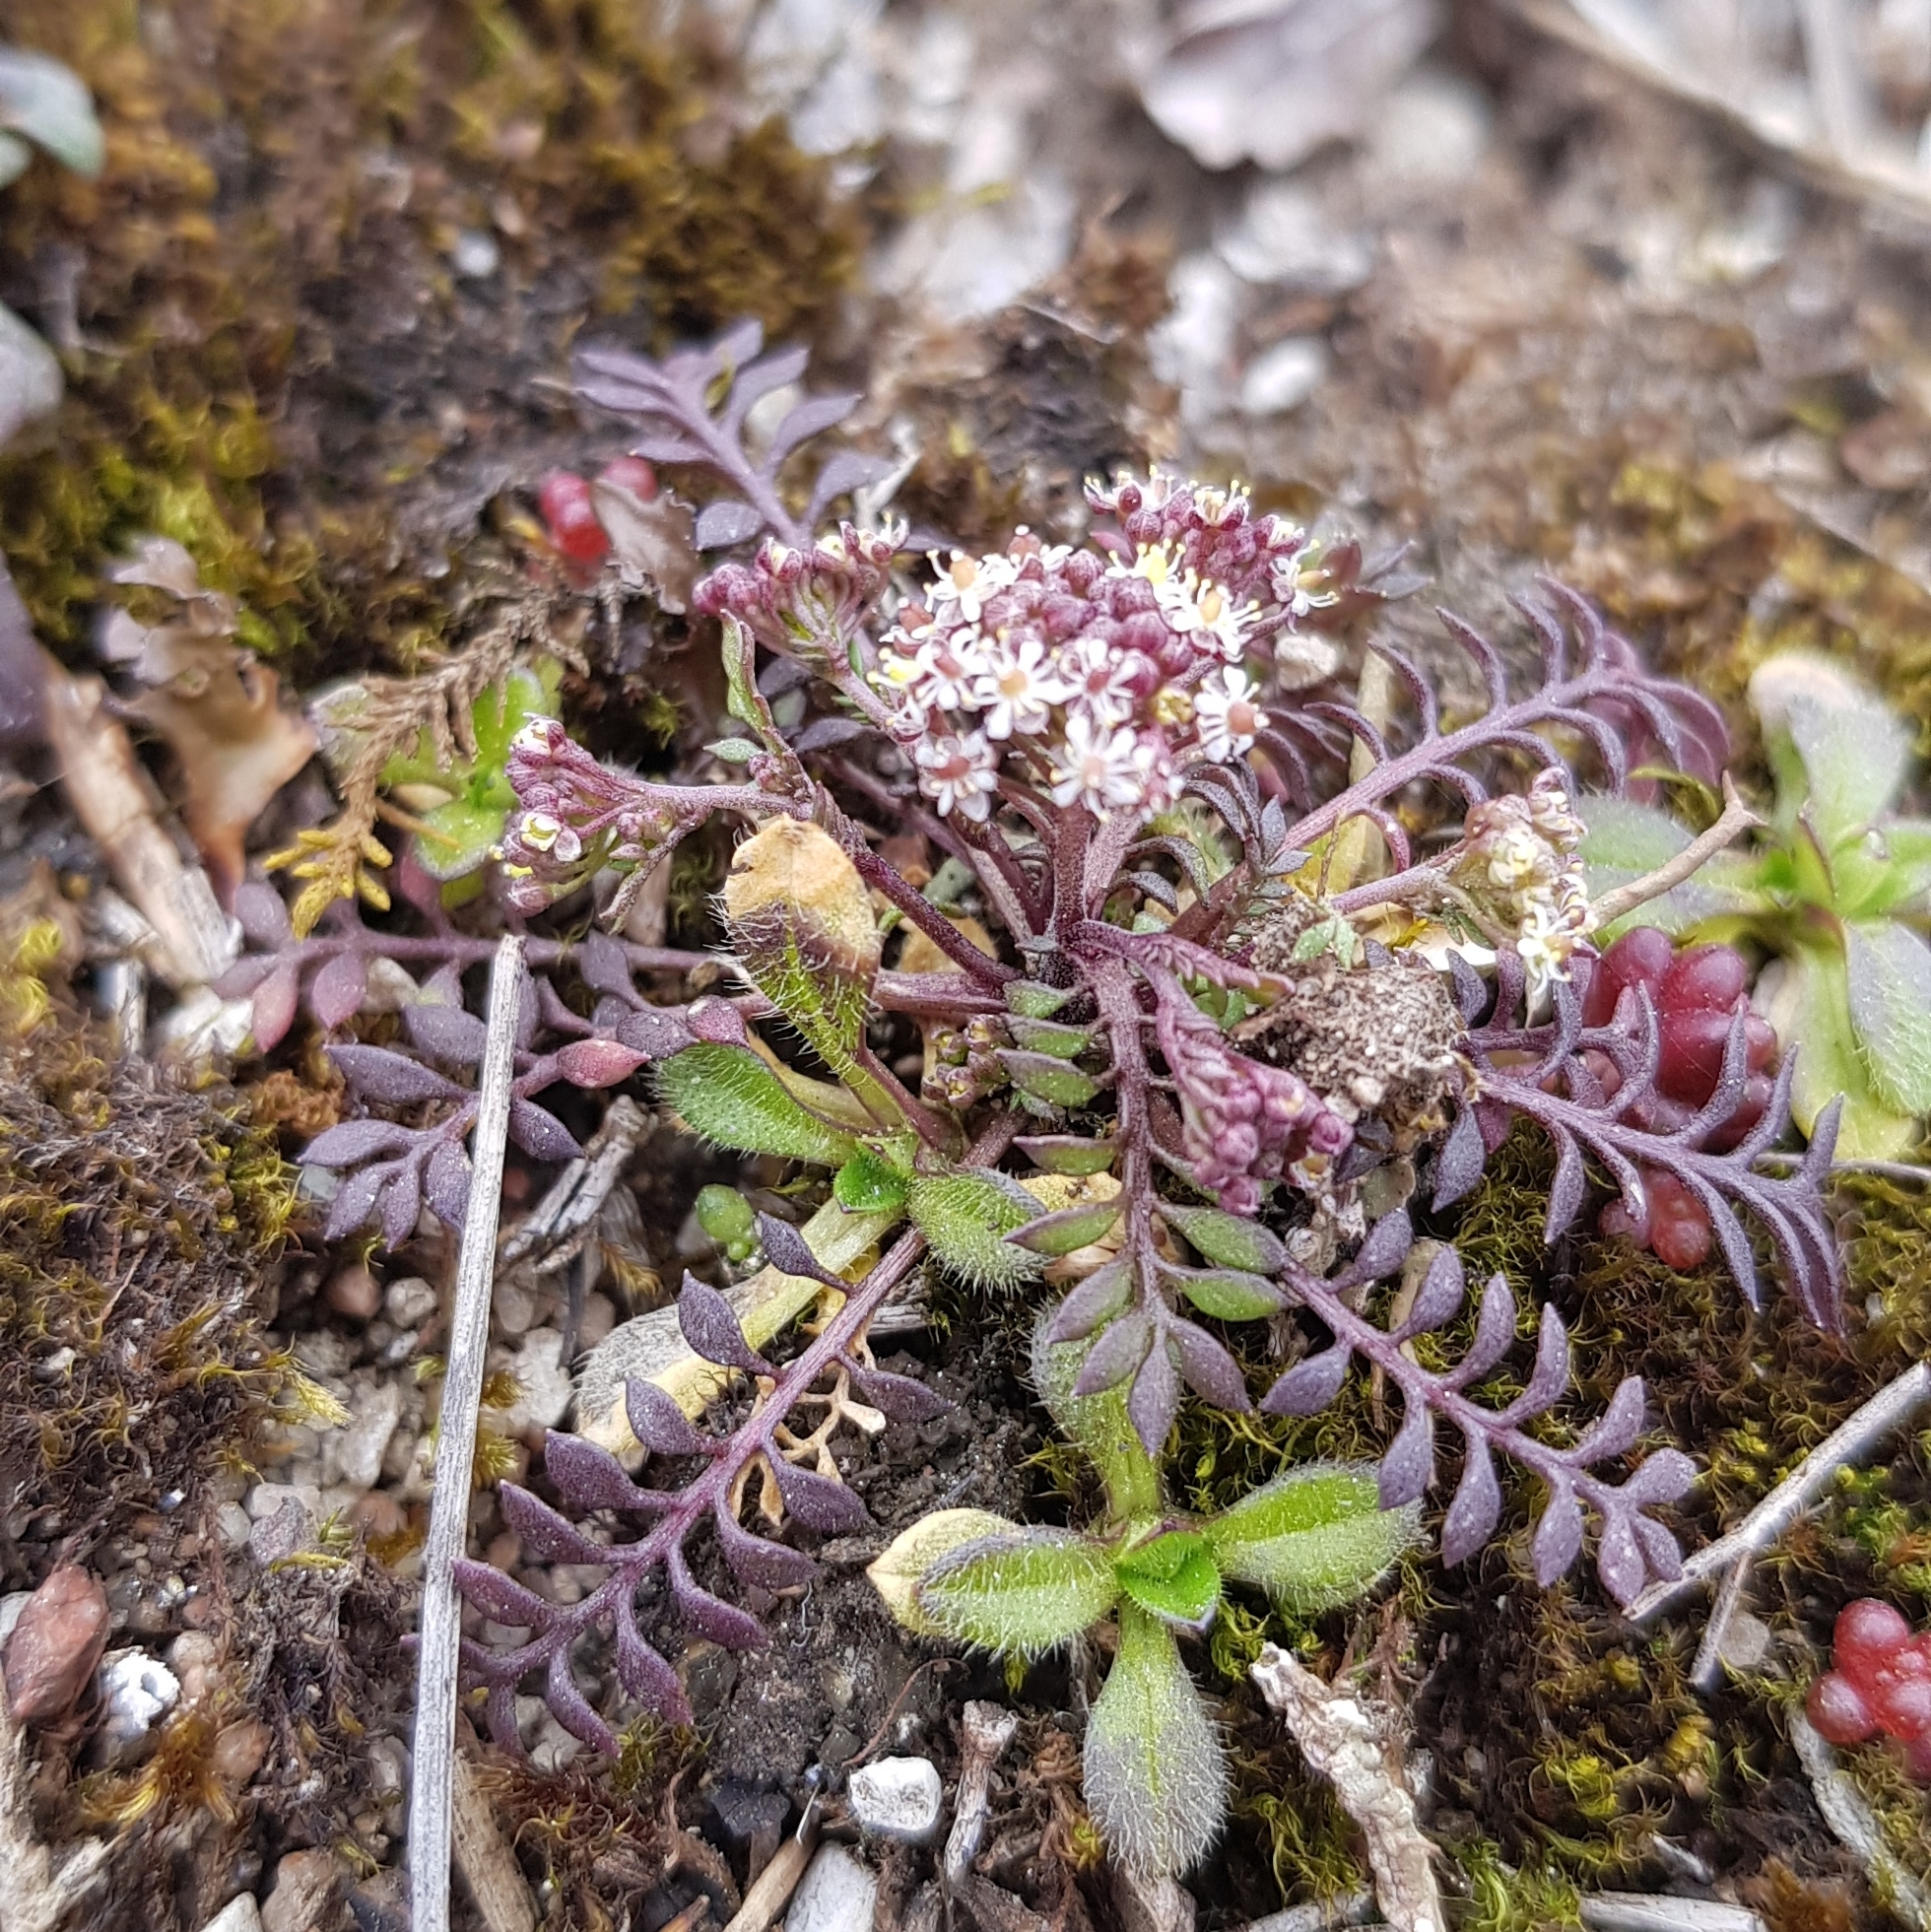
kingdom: Plantae
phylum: Tracheophyta
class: Magnoliopsida
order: Brassicales
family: Brassicaceae
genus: Hornungia
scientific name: Hornungia petraea
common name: Hutchinsia
